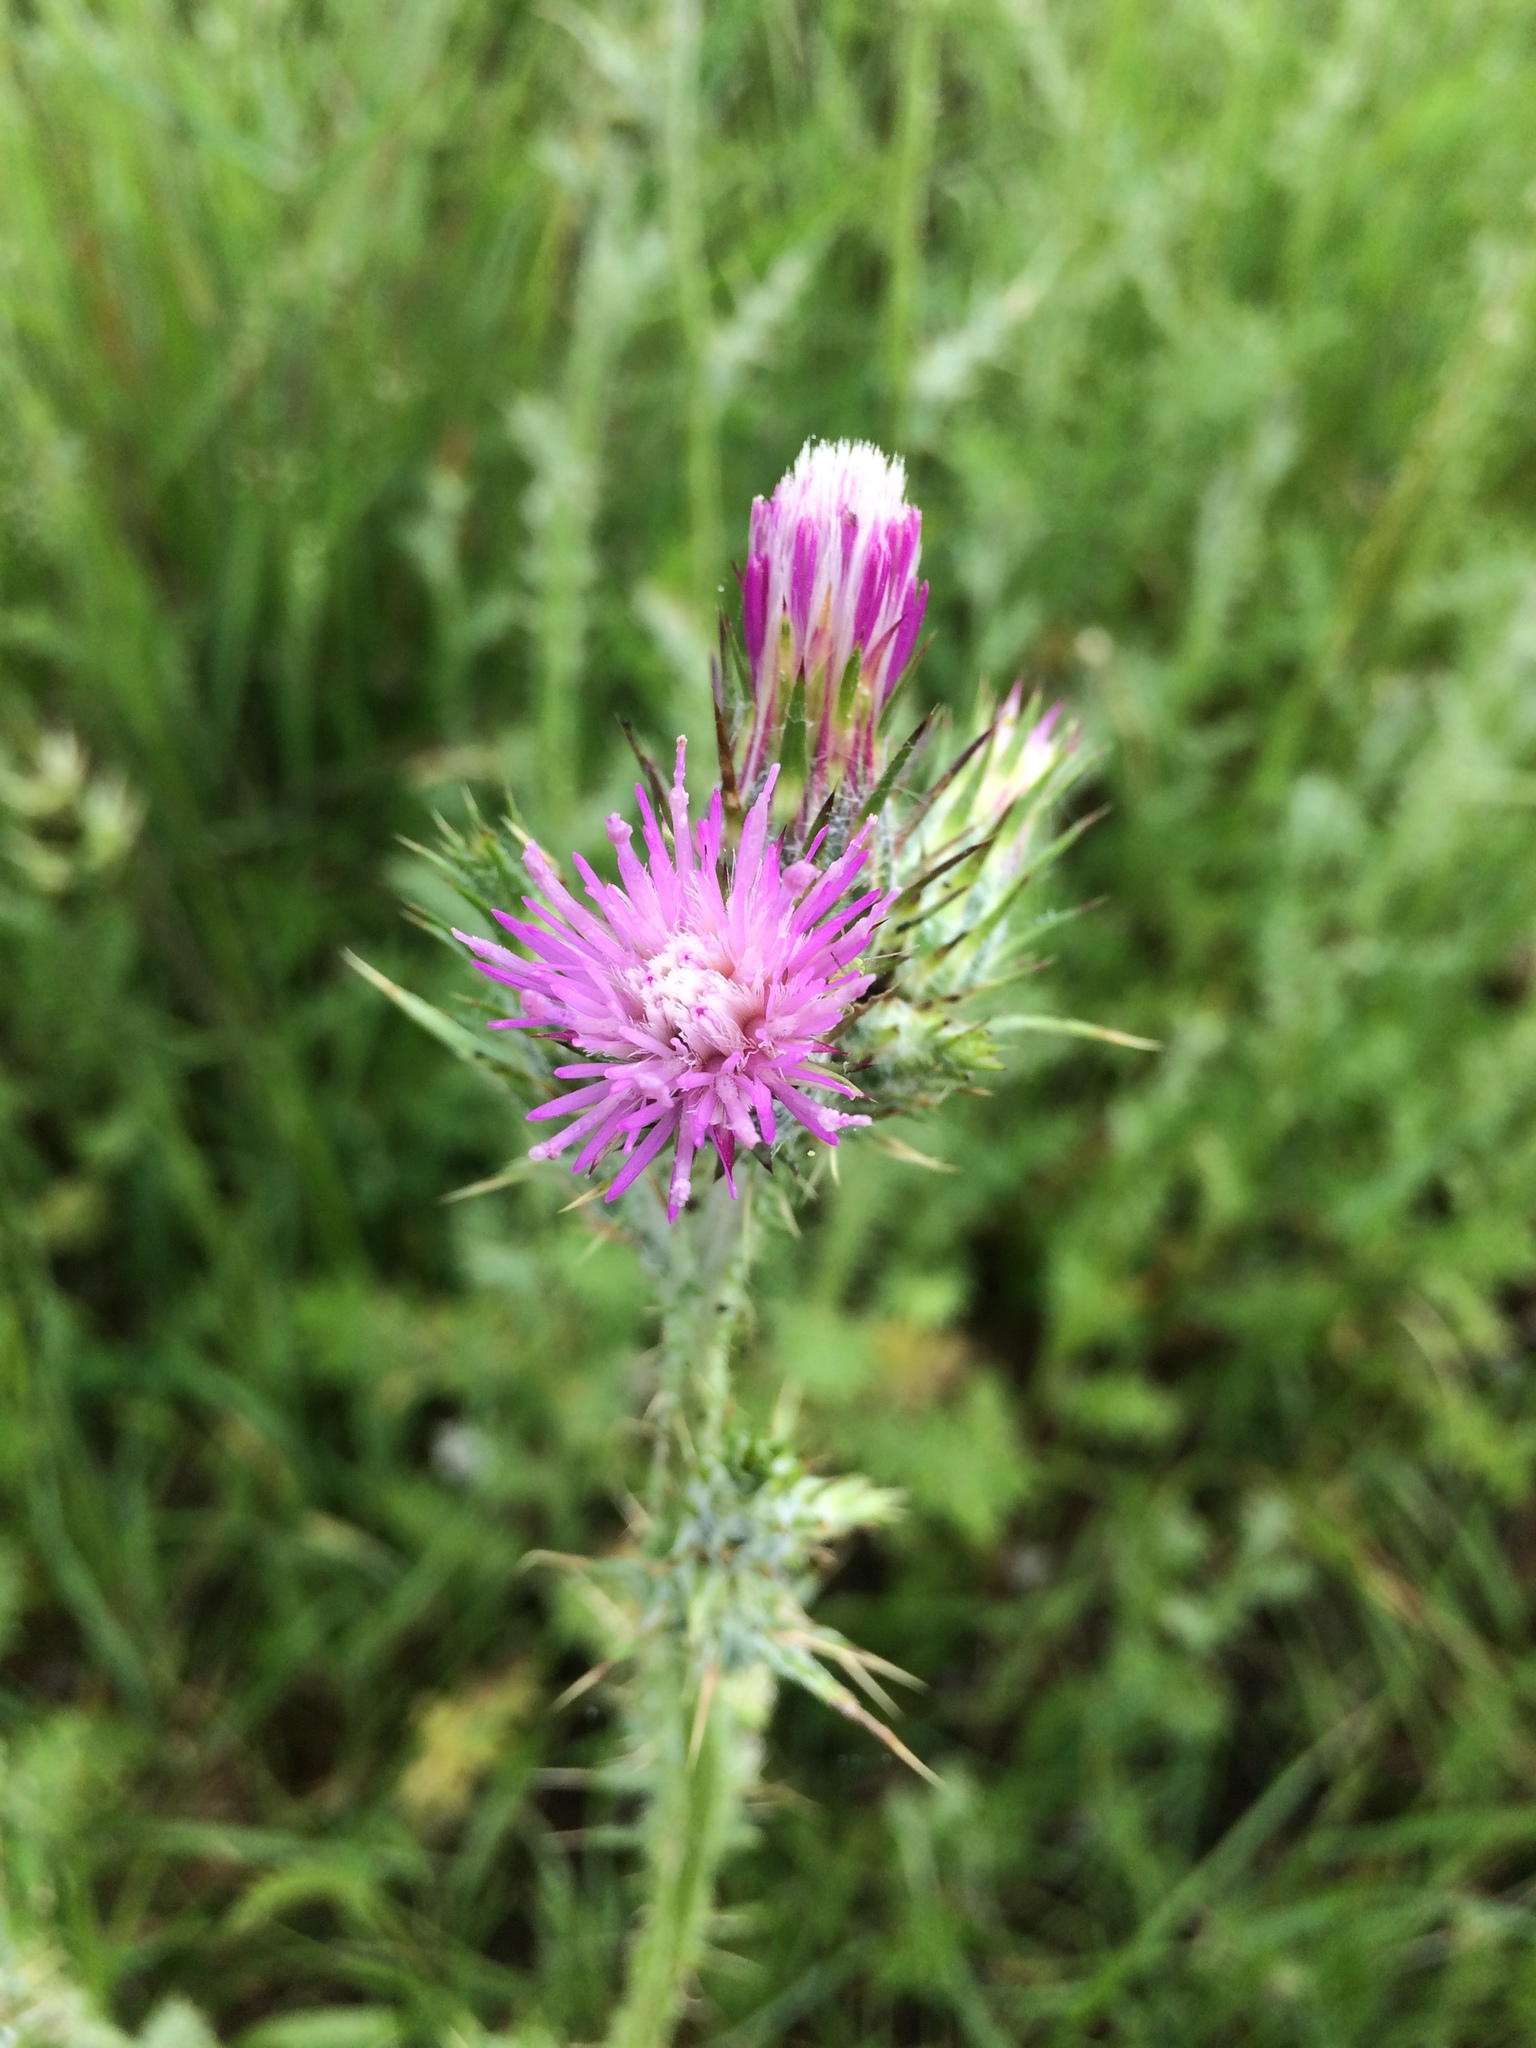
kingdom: Plantae
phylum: Tracheophyta
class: Magnoliopsida
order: Asterales
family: Asteraceae
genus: Carduus
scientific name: Carduus pycnocephalus
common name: Plymouth thistle
